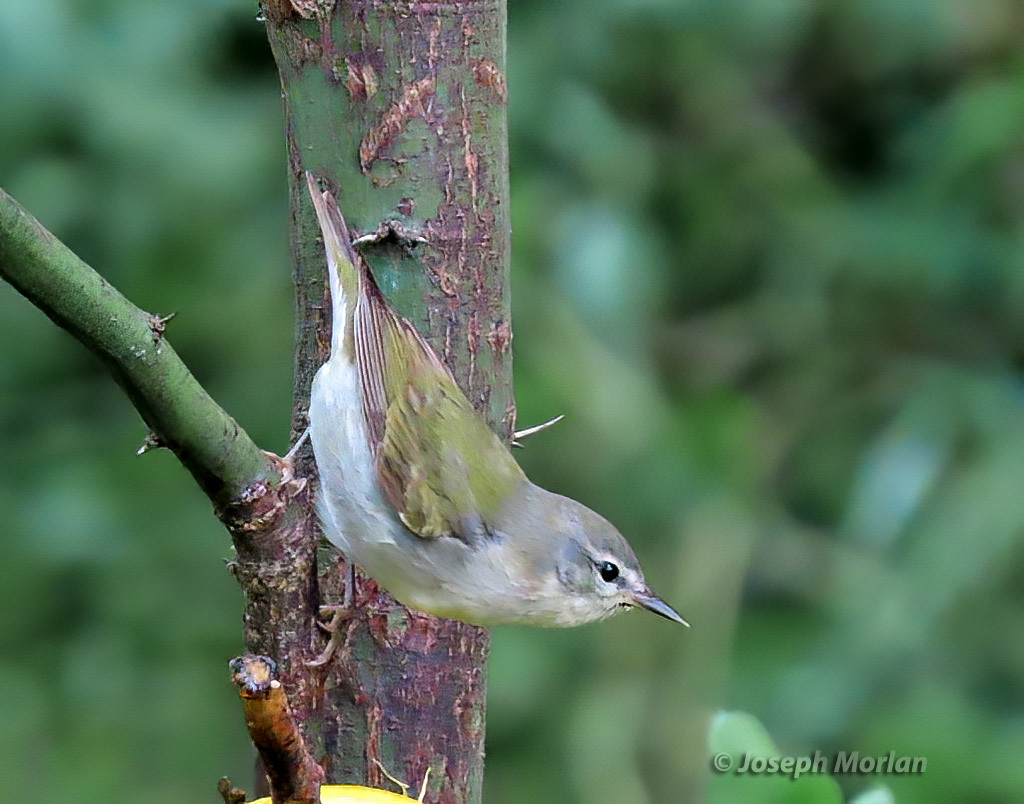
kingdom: Animalia
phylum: Chordata
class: Aves
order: Passeriformes
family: Parulidae
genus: Leiothlypis
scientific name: Leiothlypis peregrina
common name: Tennessee warbler
